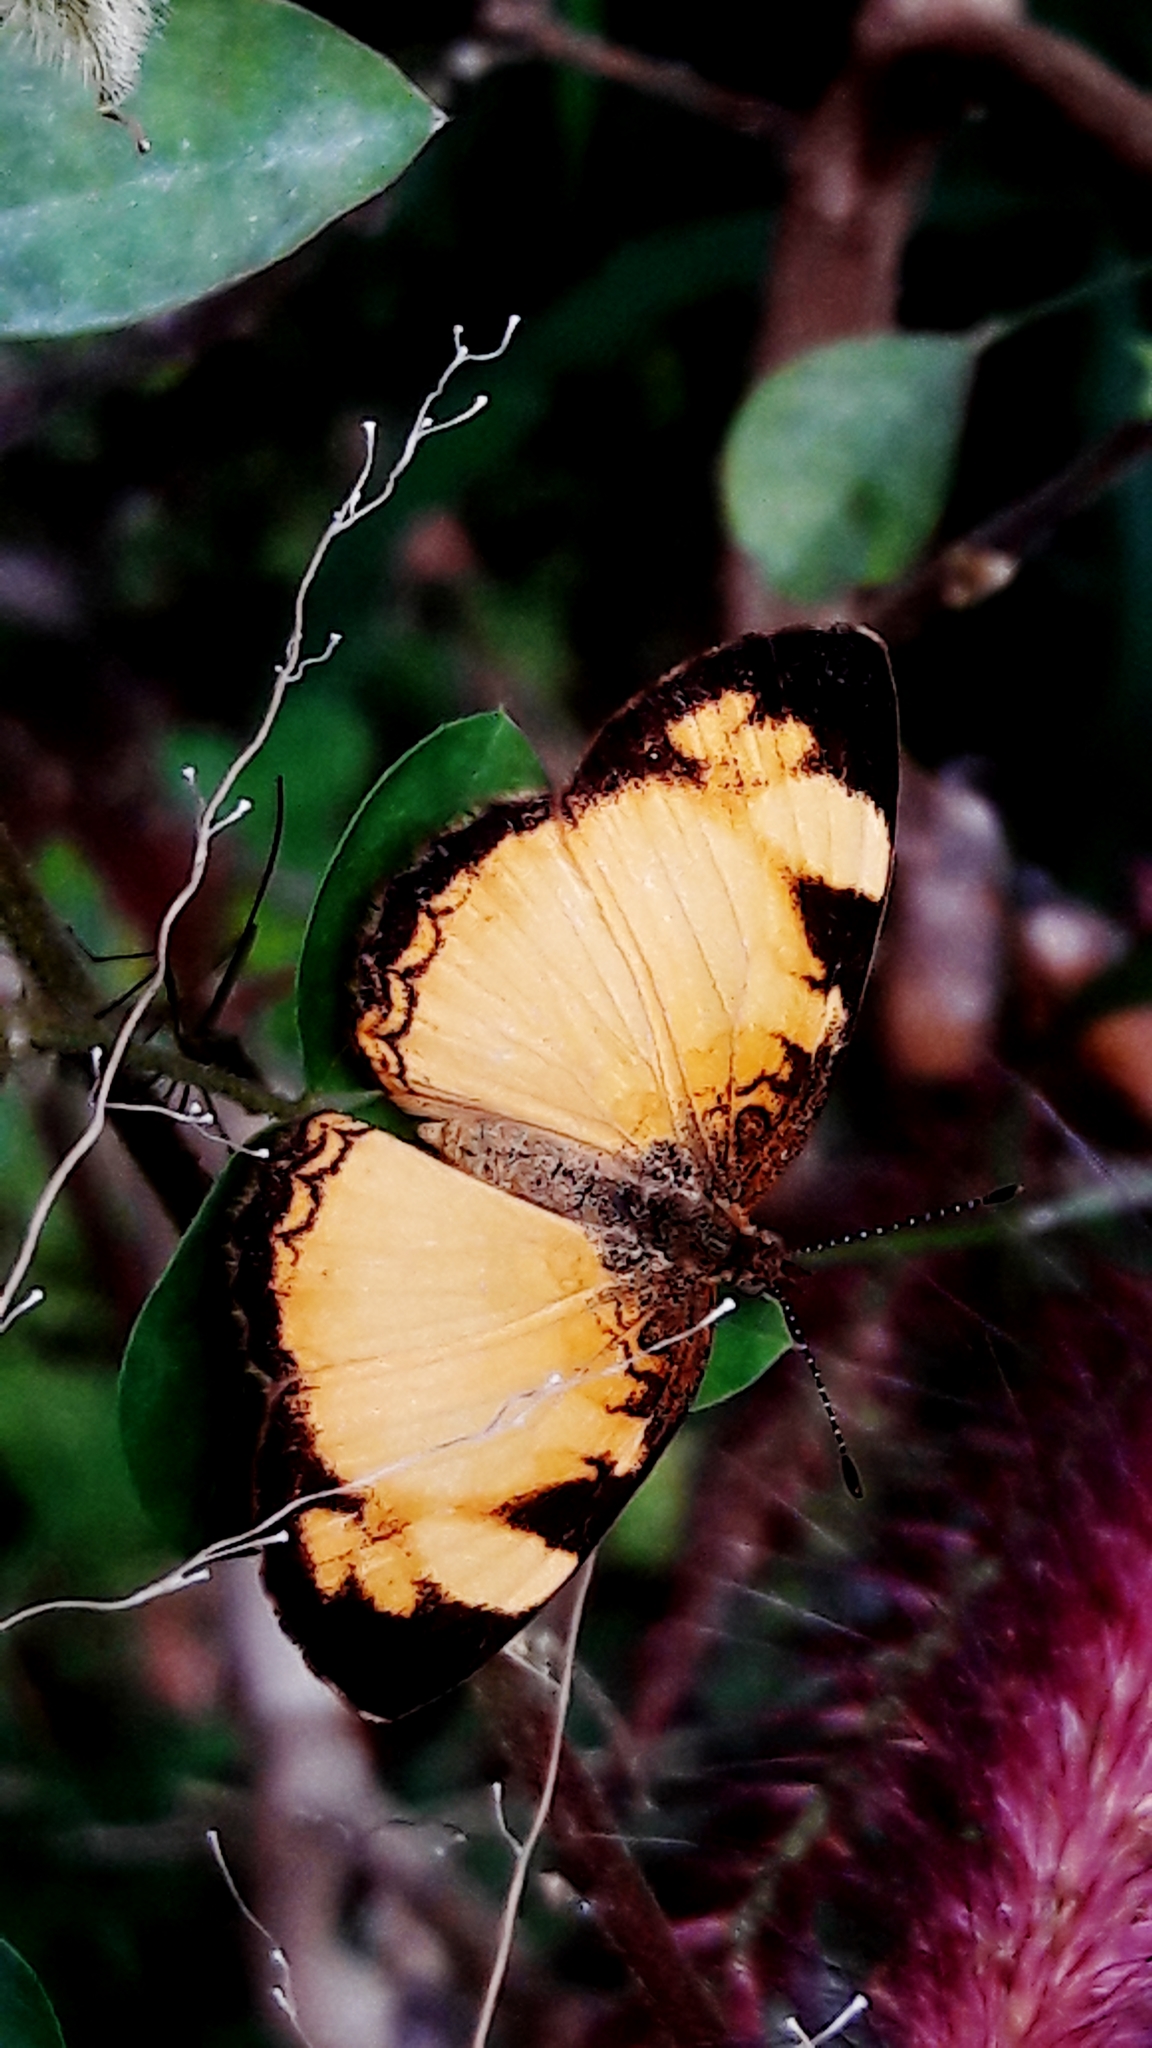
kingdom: Animalia
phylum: Arthropoda
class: Insecta
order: Lepidoptera
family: Nymphalidae
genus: Tegosa
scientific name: Tegosa claudina
